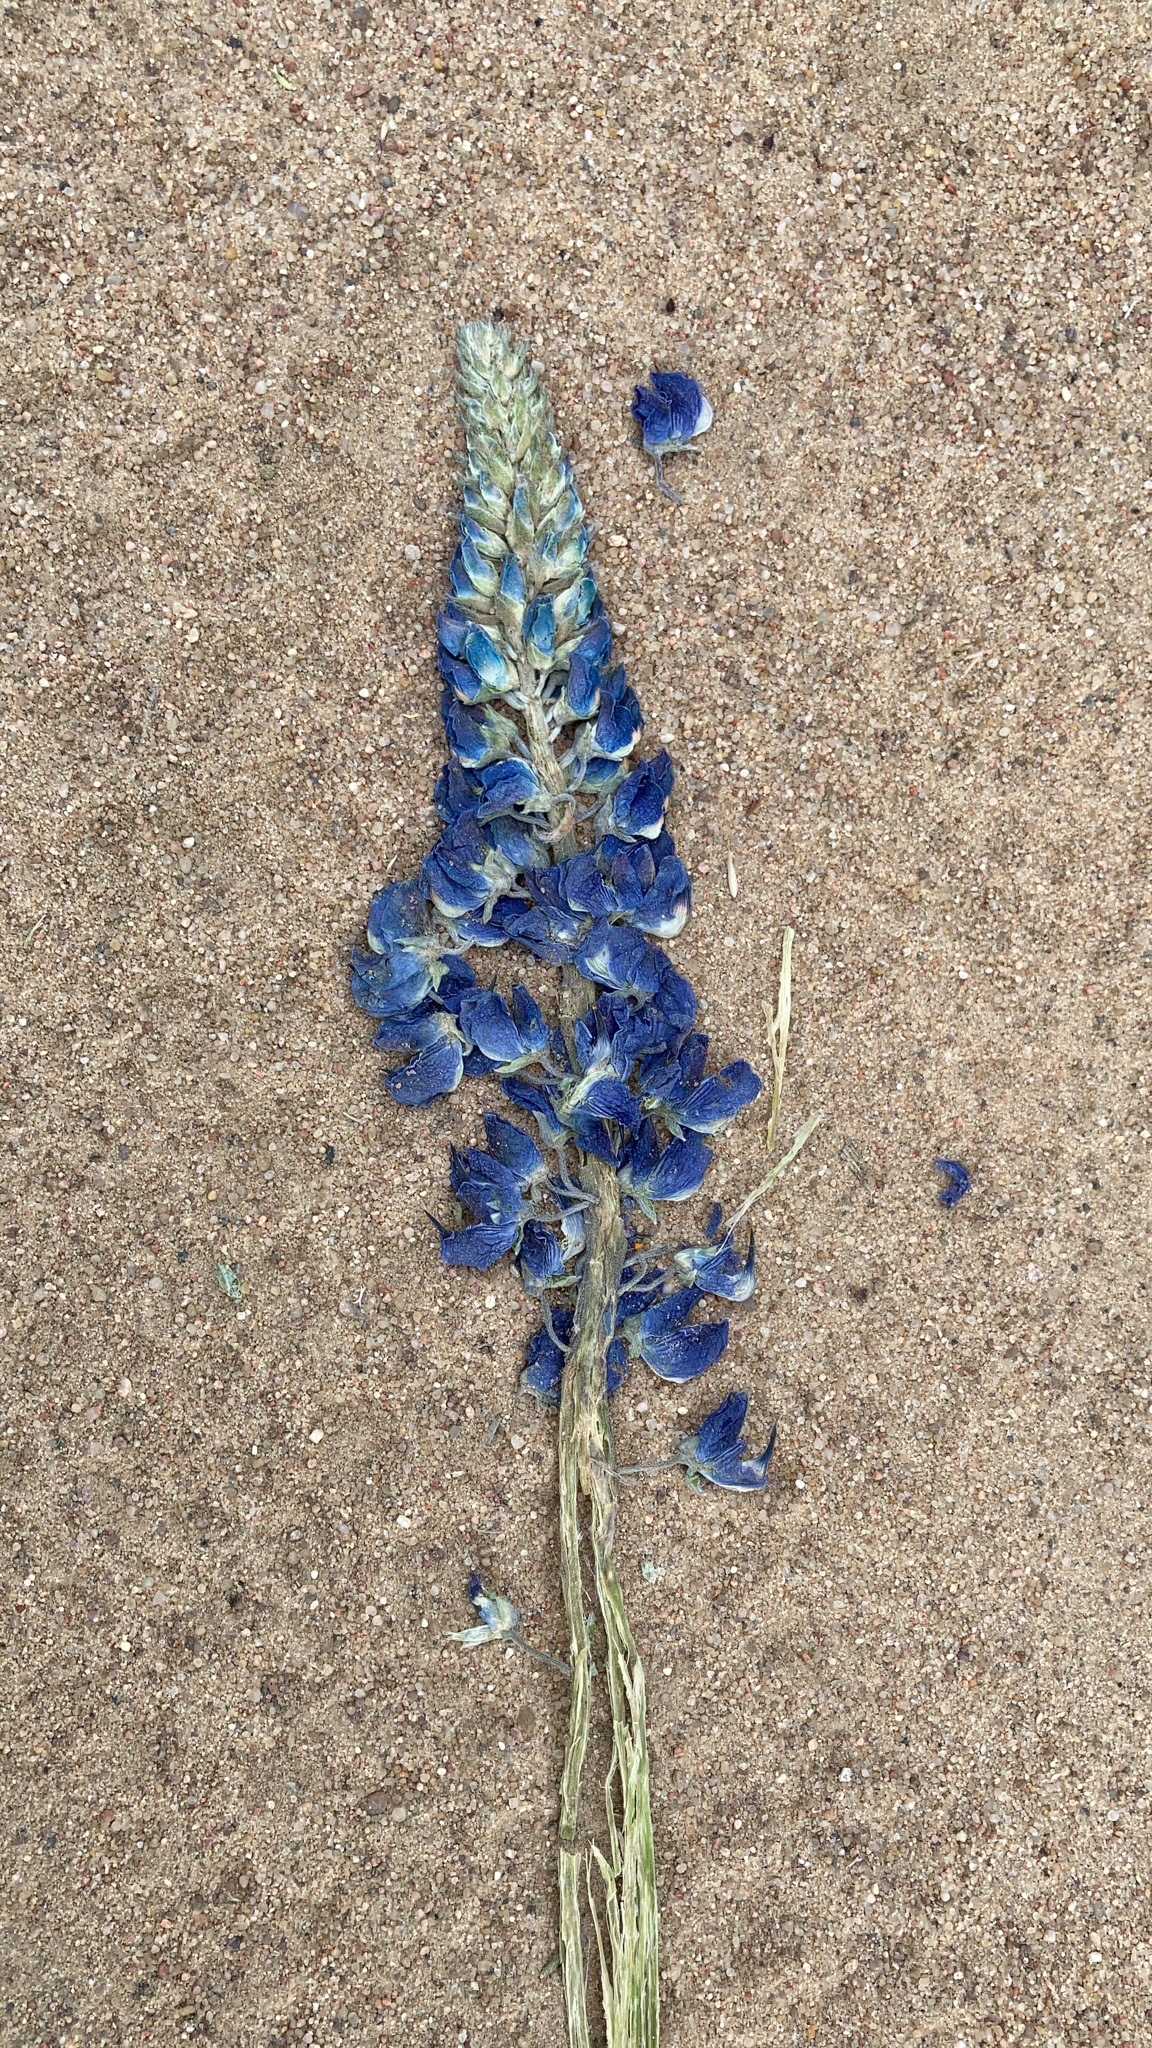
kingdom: Plantae
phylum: Tracheophyta
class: Magnoliopsida
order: Fabales
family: Fabaceae
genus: Lupinus
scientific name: Lupinus polyphyllus
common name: Garden lupin
